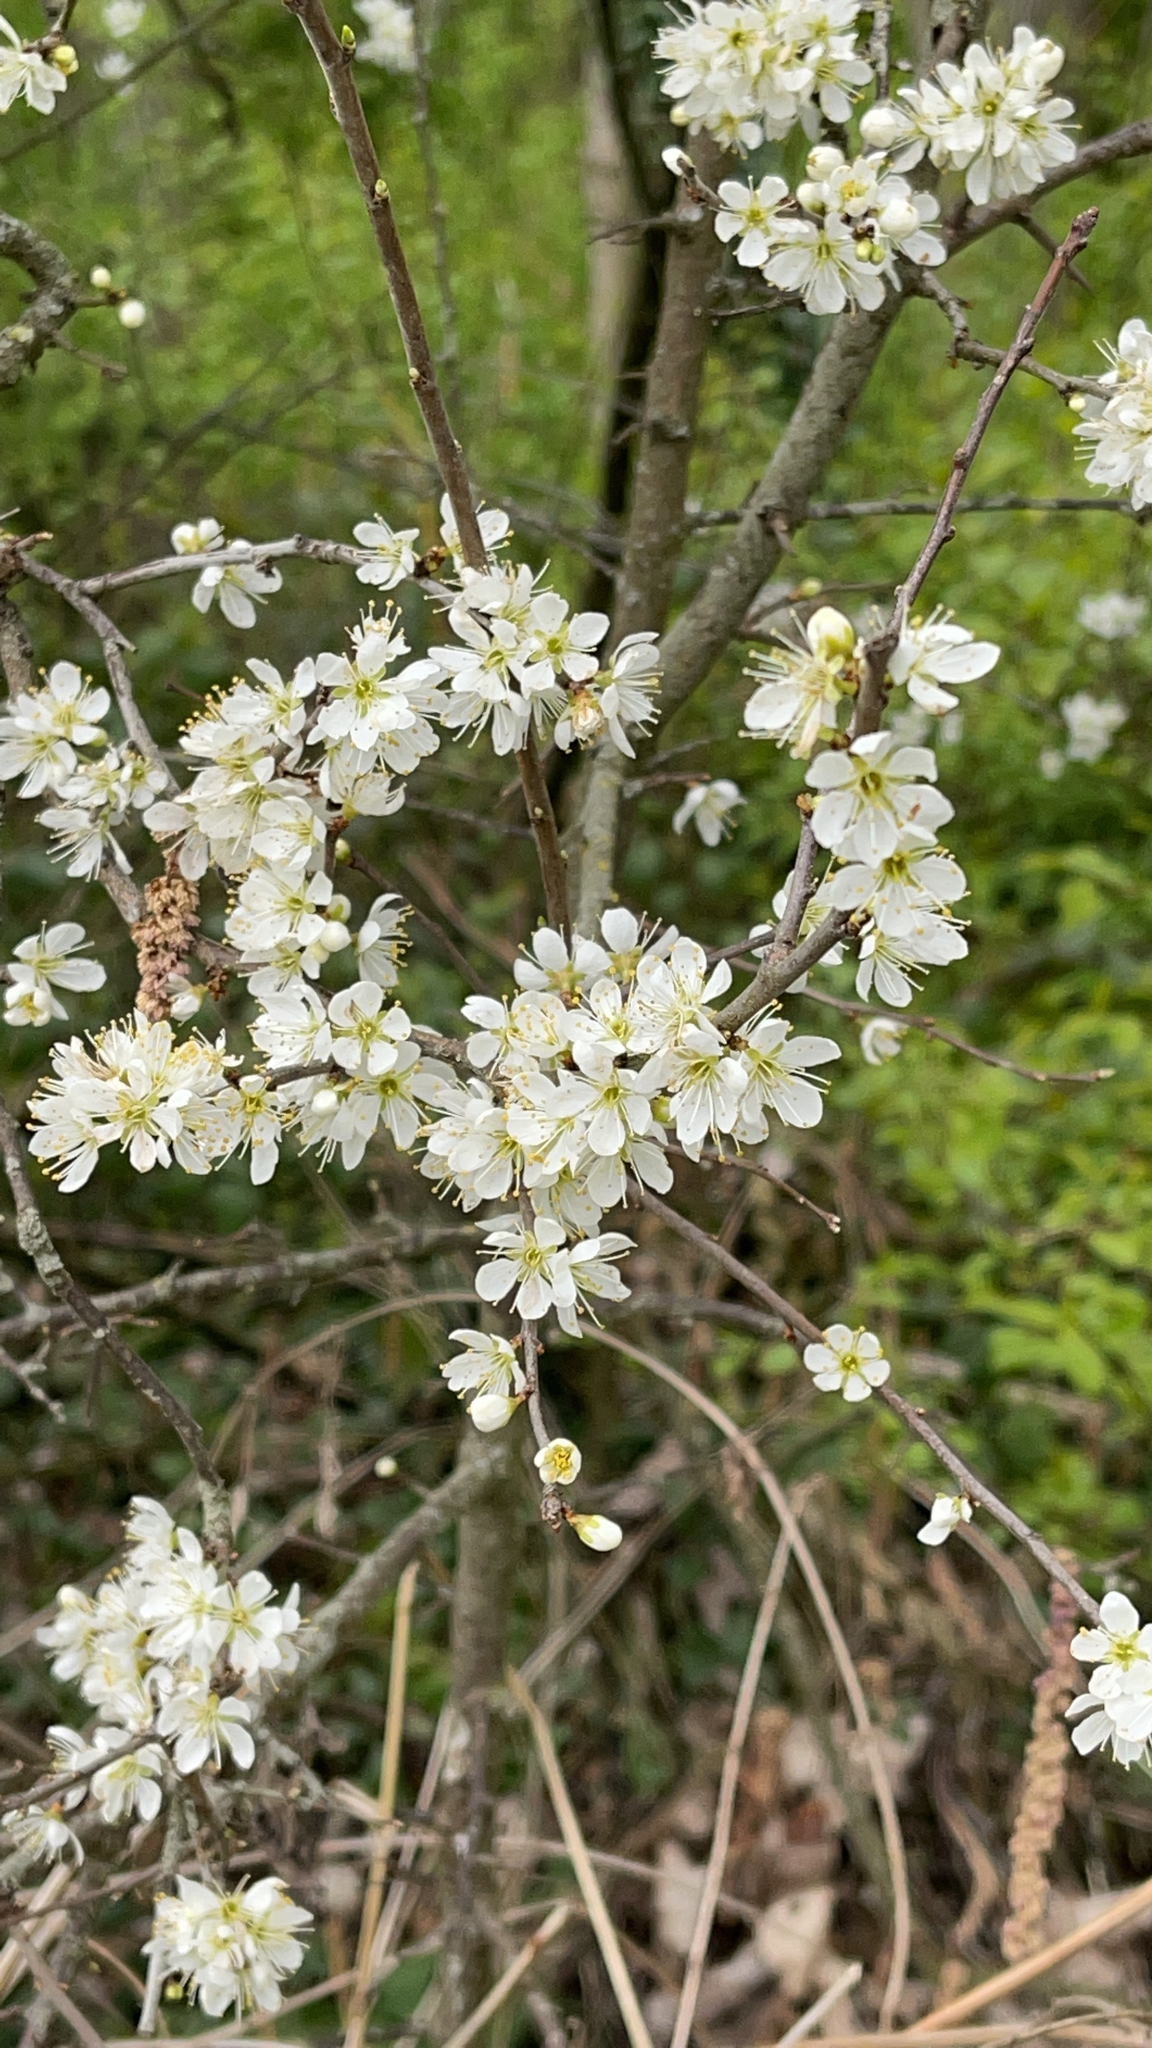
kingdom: Plantae
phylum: Tracheophyta
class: Magnoliopsida
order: Rosales
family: Rosaceae
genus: Prunus
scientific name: Prunus spinosa
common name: Blackthorn
